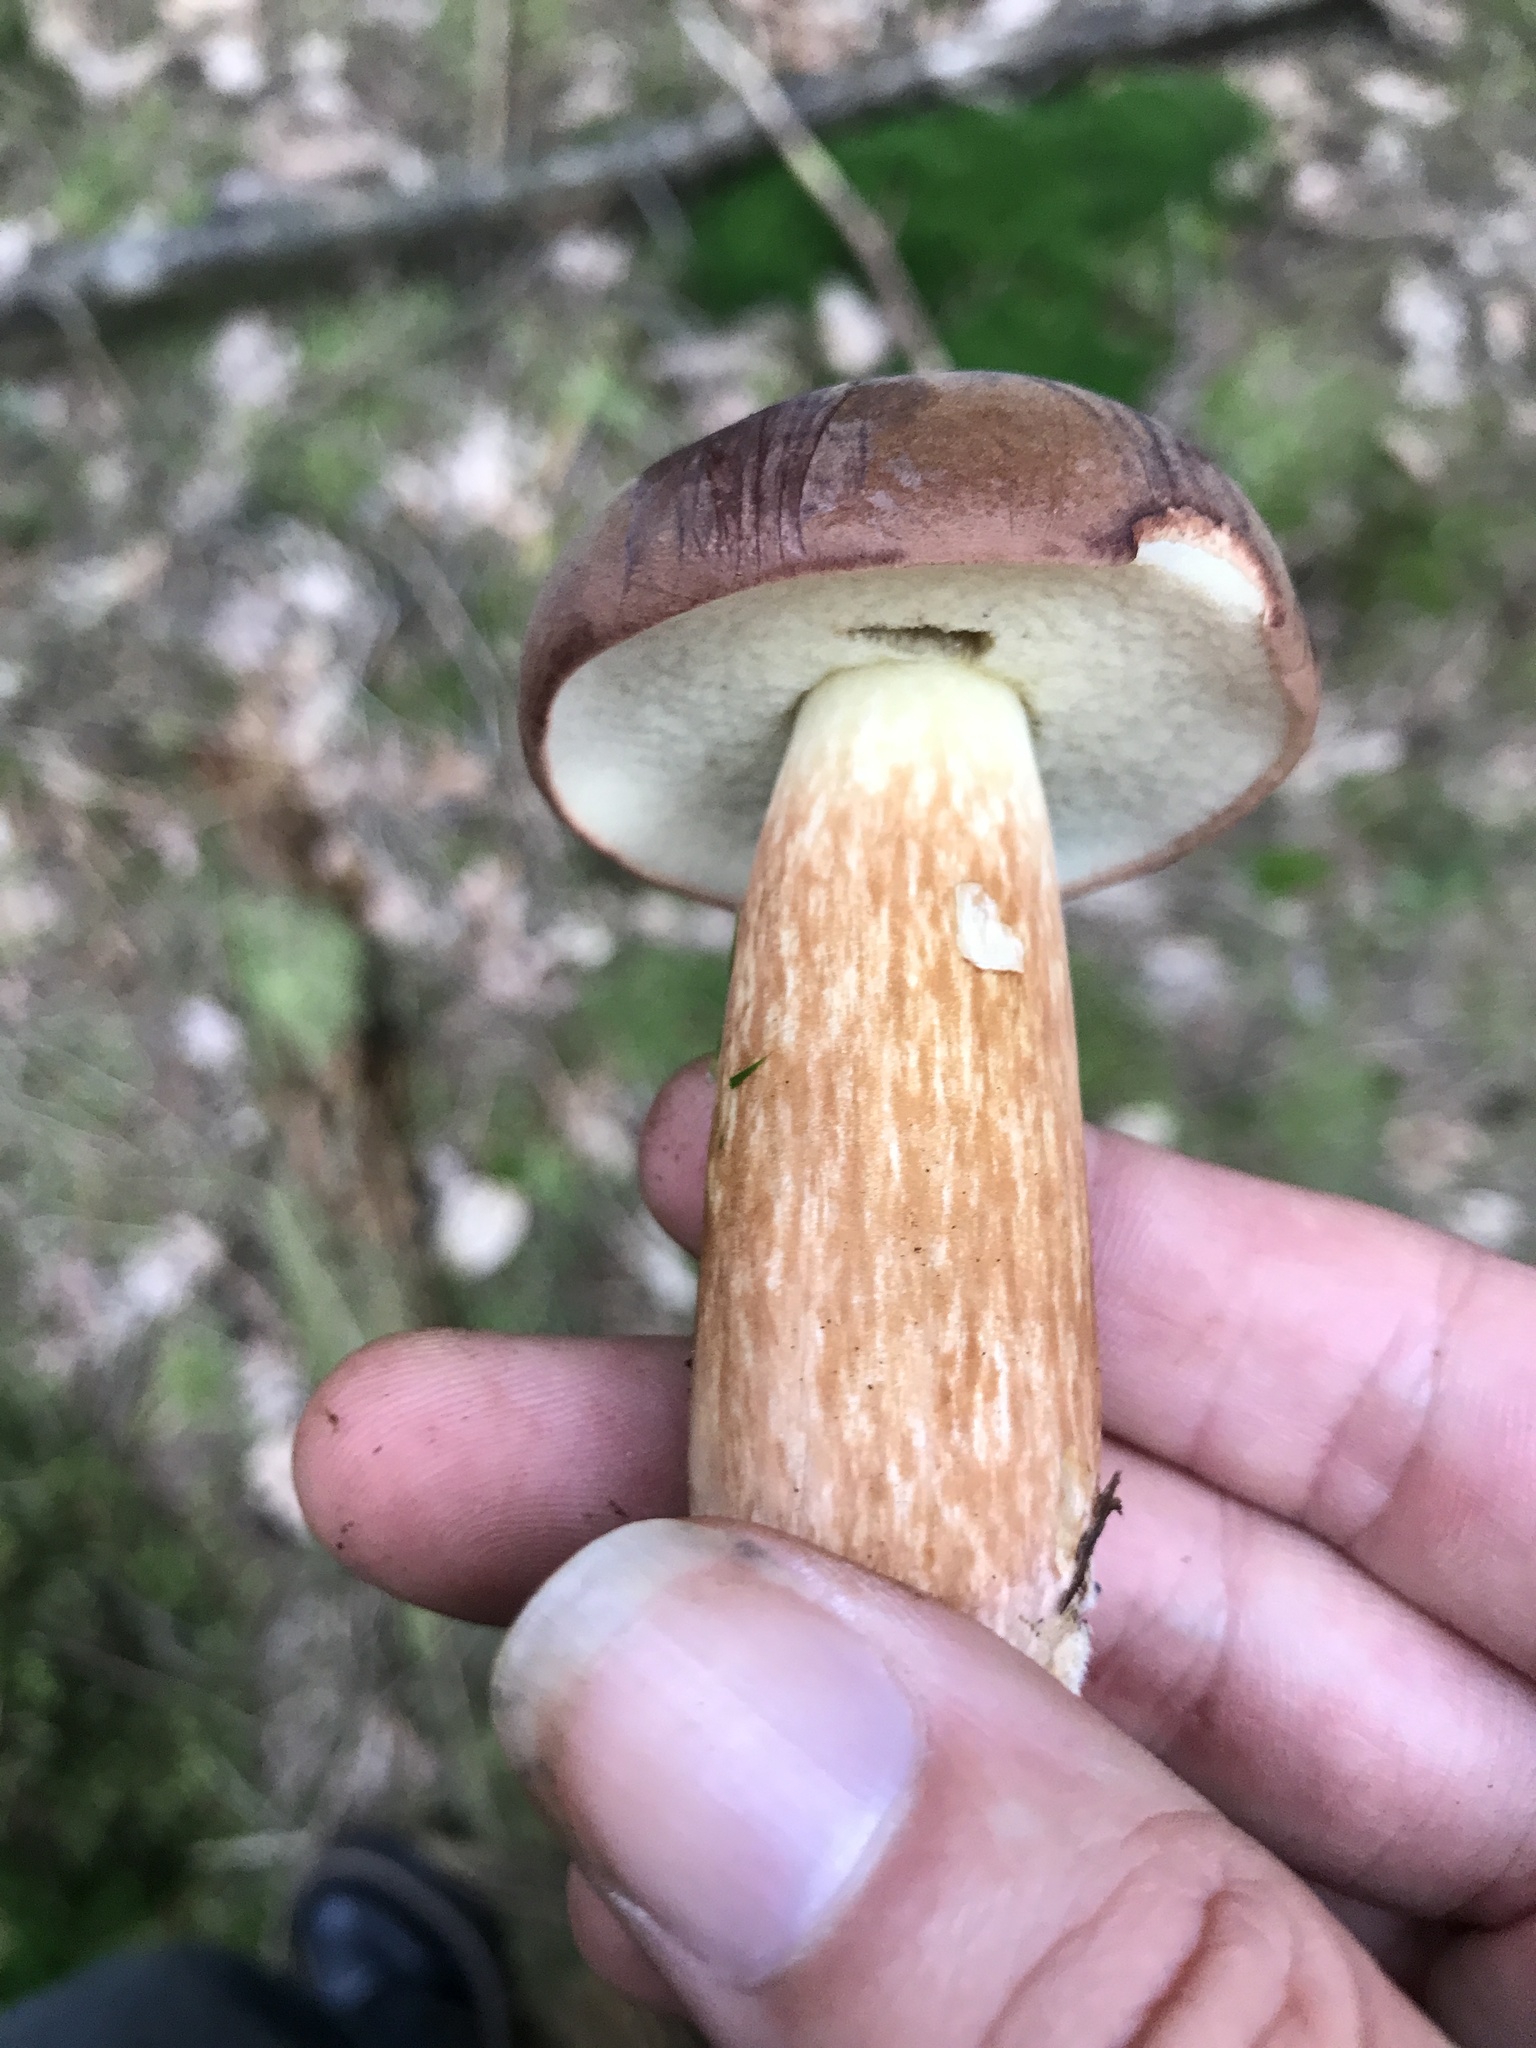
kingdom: Fungi
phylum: Basidiomycota
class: Agaricomycetes
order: Boletales
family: Boletaceae
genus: Imleria
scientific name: Imleria badia
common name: Bay bolete
